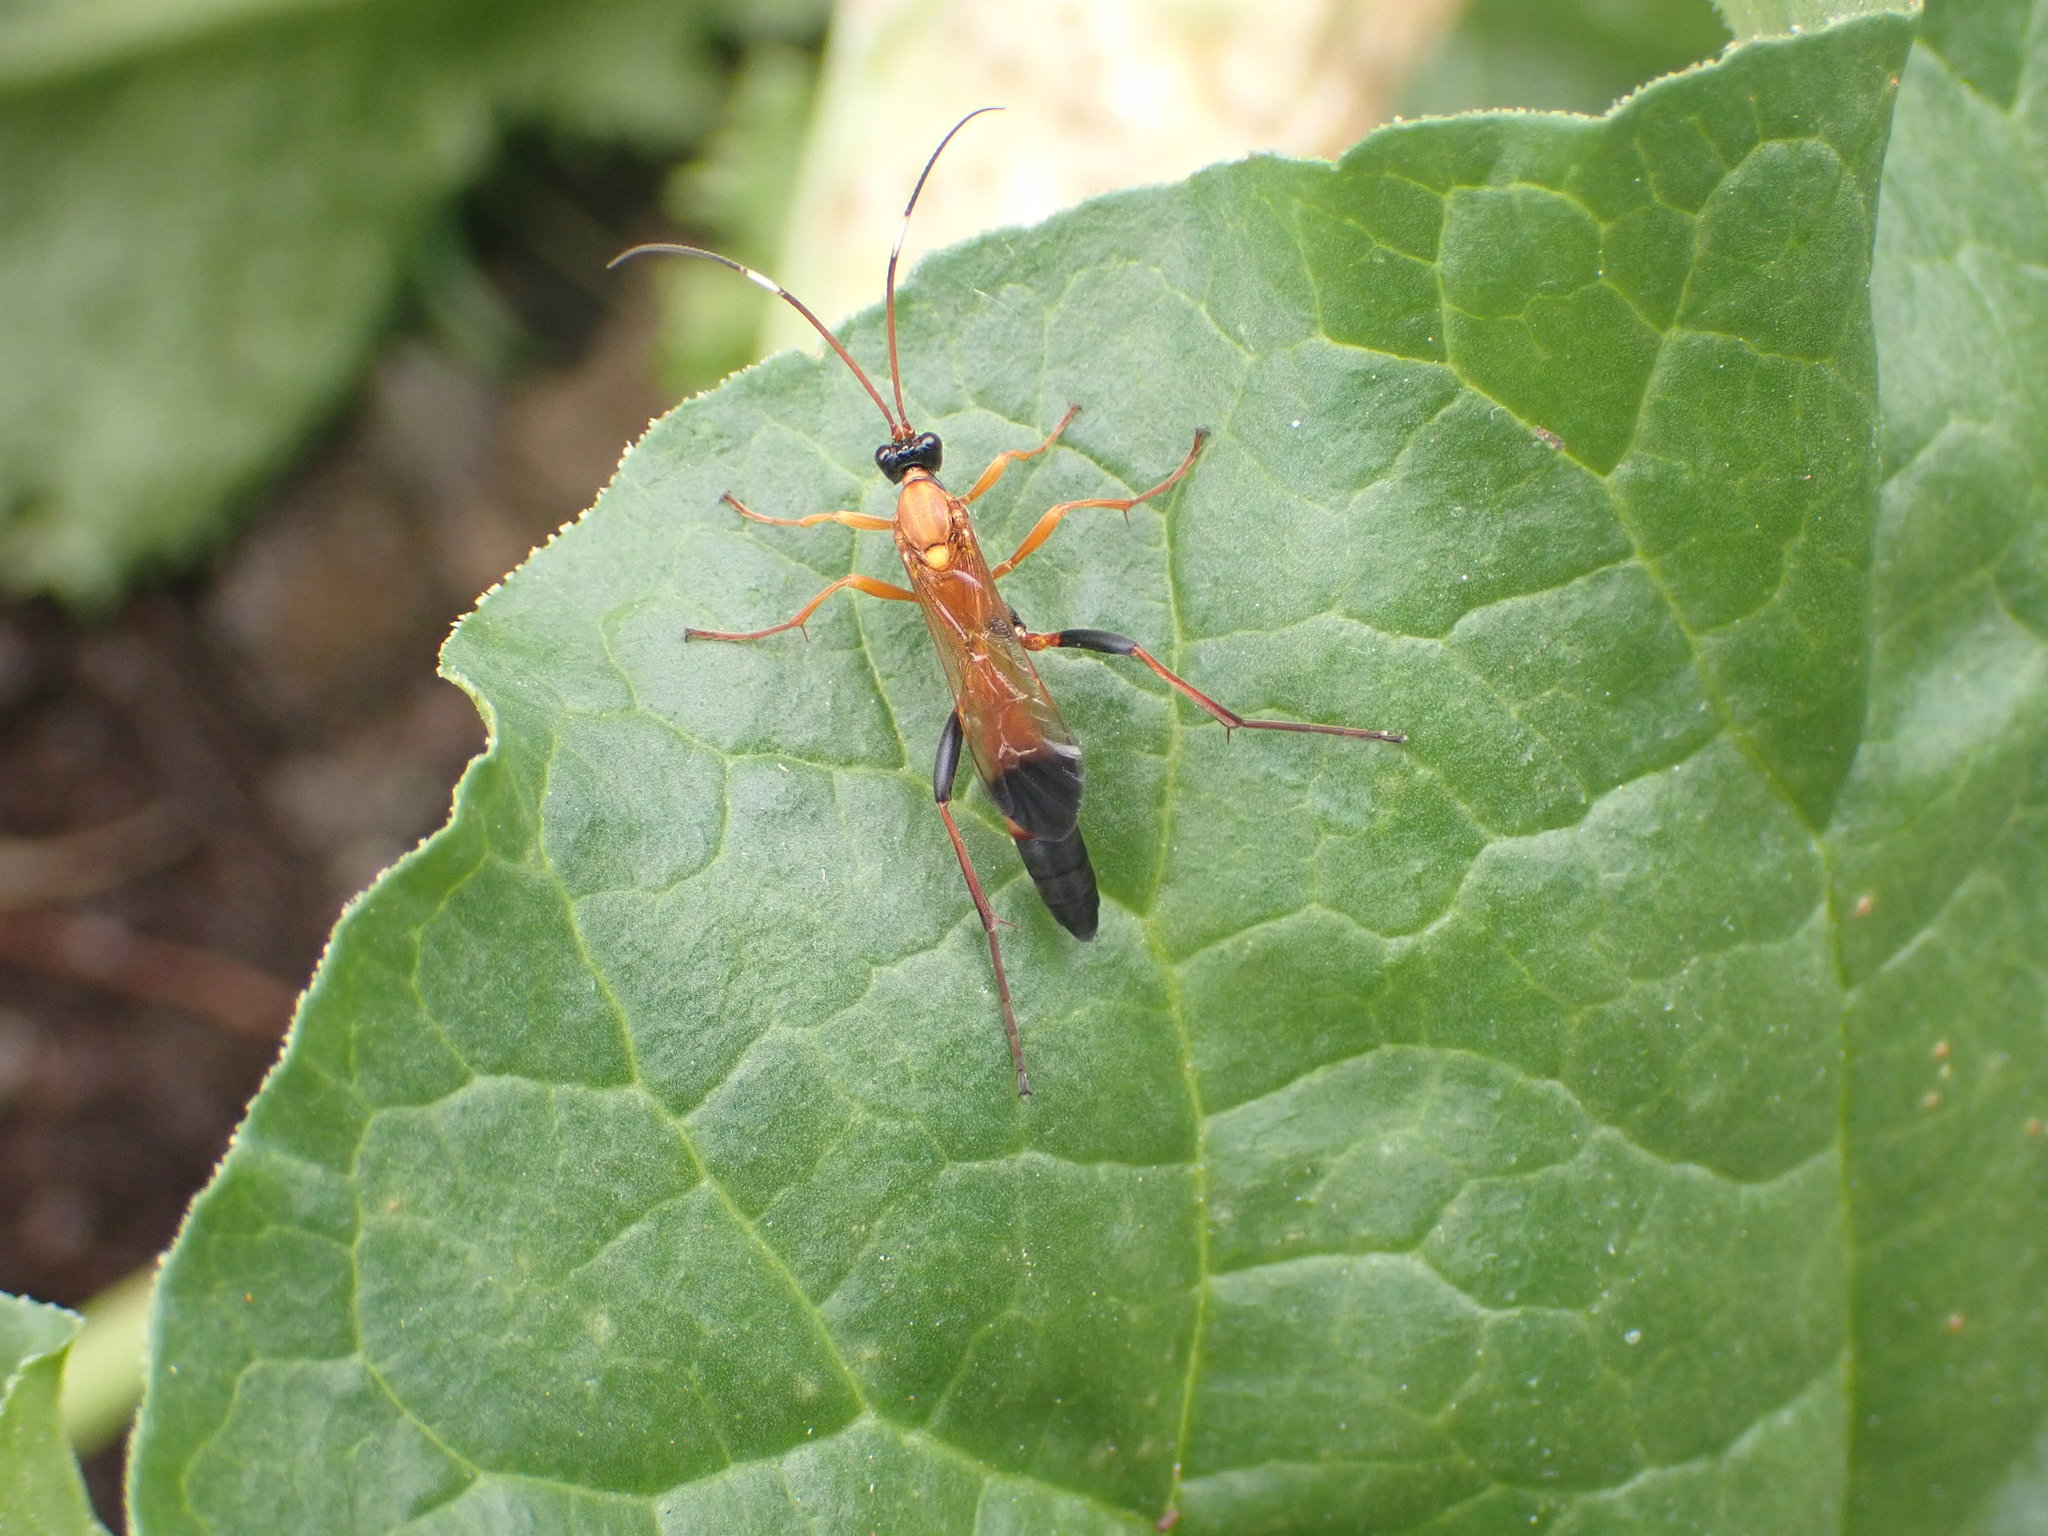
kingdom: Animalia
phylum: Arthropoda
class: Insecta
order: Hymenoptera
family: Ichneumonidae
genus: Ctenochares
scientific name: Ctenochares bicolorus
